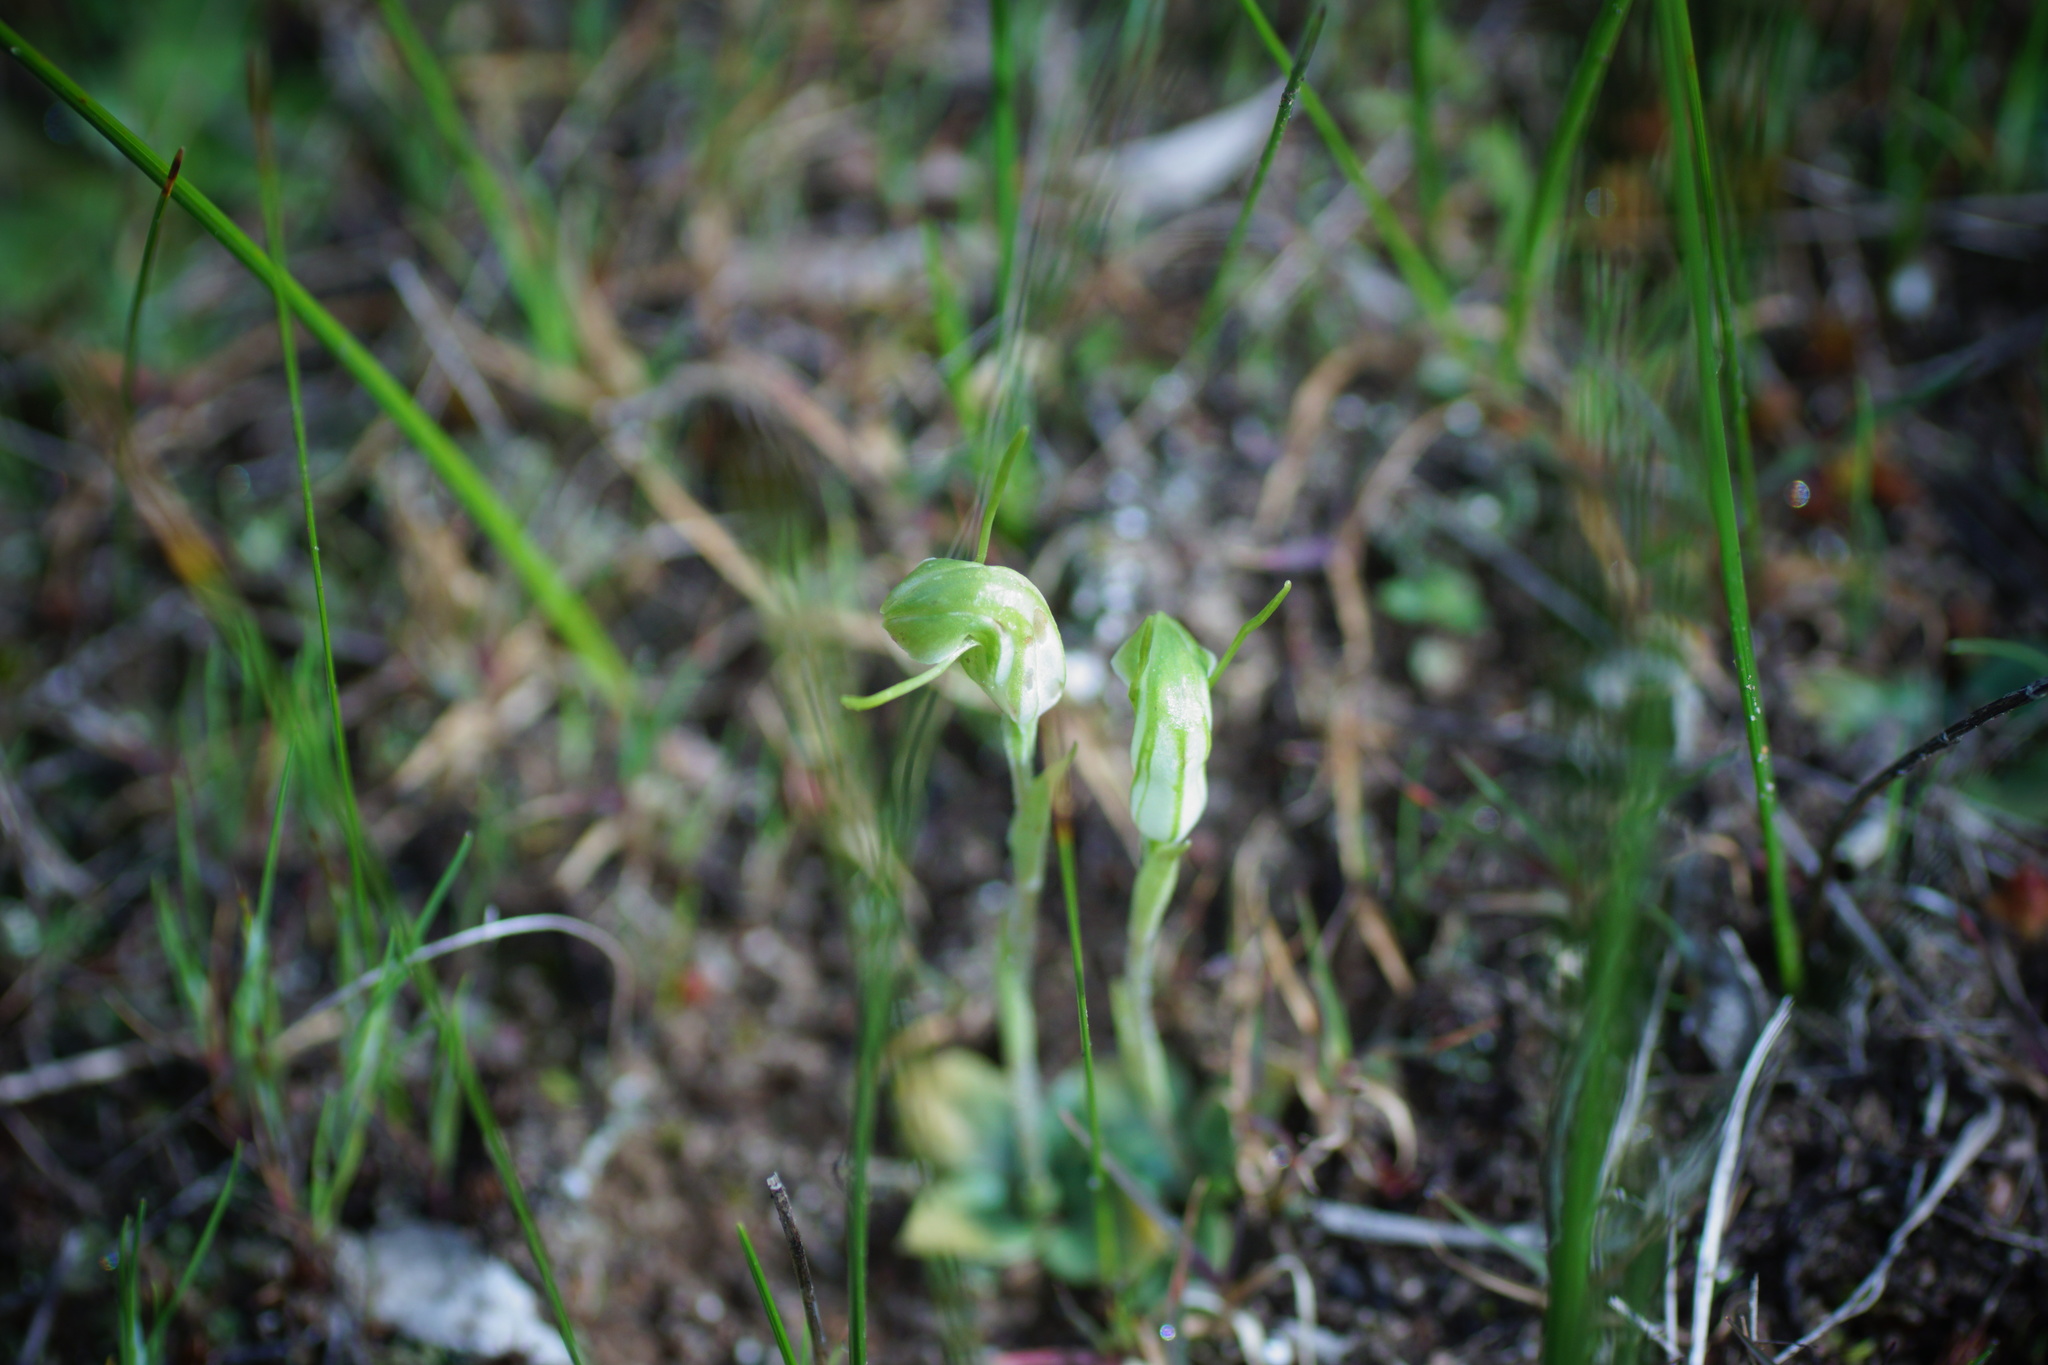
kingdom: Plantae
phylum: Tracheophyta
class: Liliopsida
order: Asparagales
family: Orchidaceae
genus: Pterostylis
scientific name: Pterostylis nana
